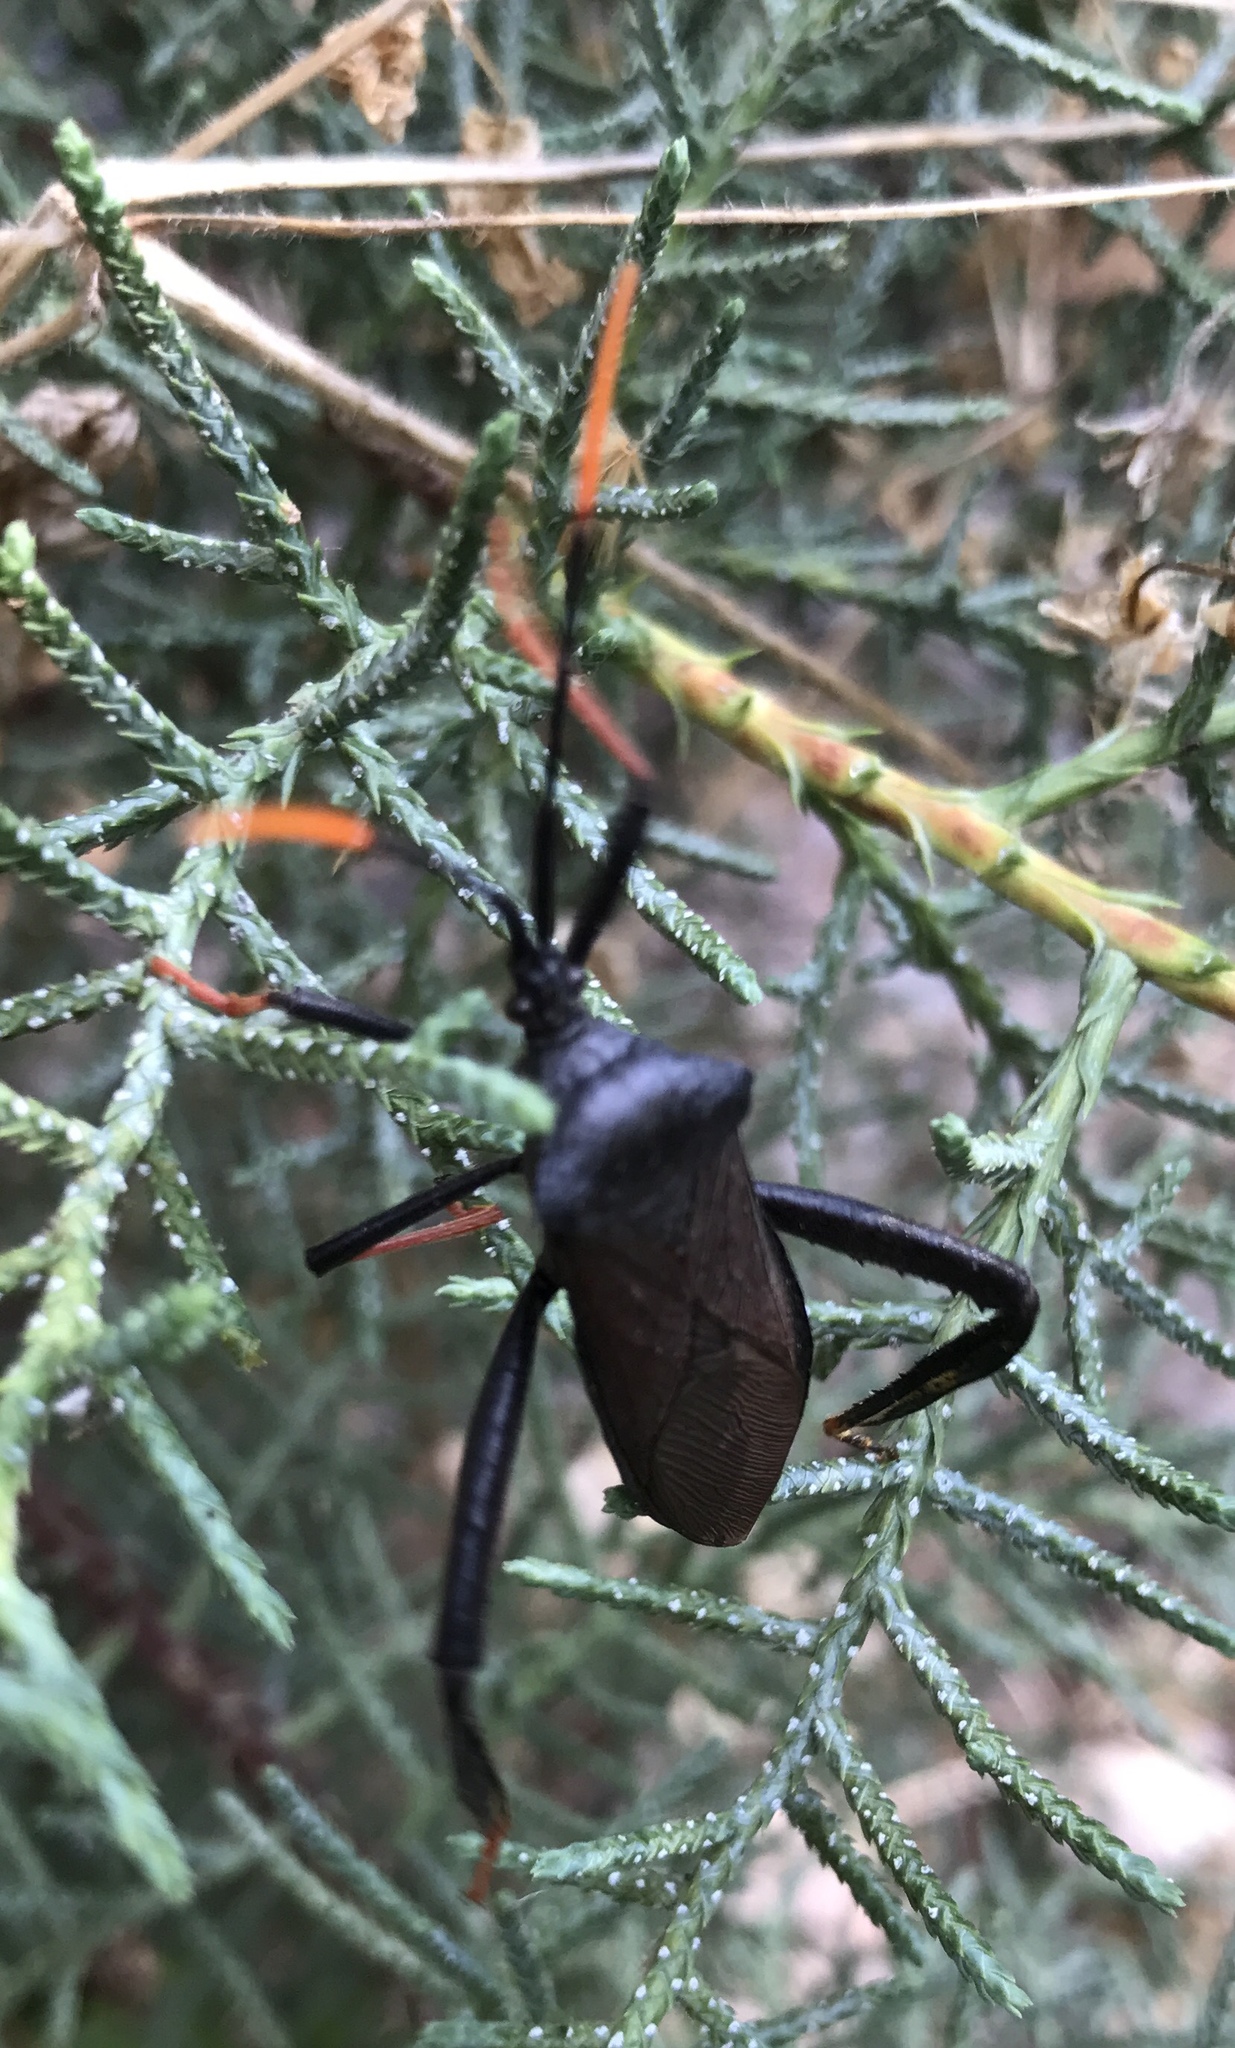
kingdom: Animalia
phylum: Arthropoda
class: Insecta
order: Hemiptera
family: Coreidae
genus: Acanthocephala
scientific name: Acanthocephala thomasi
